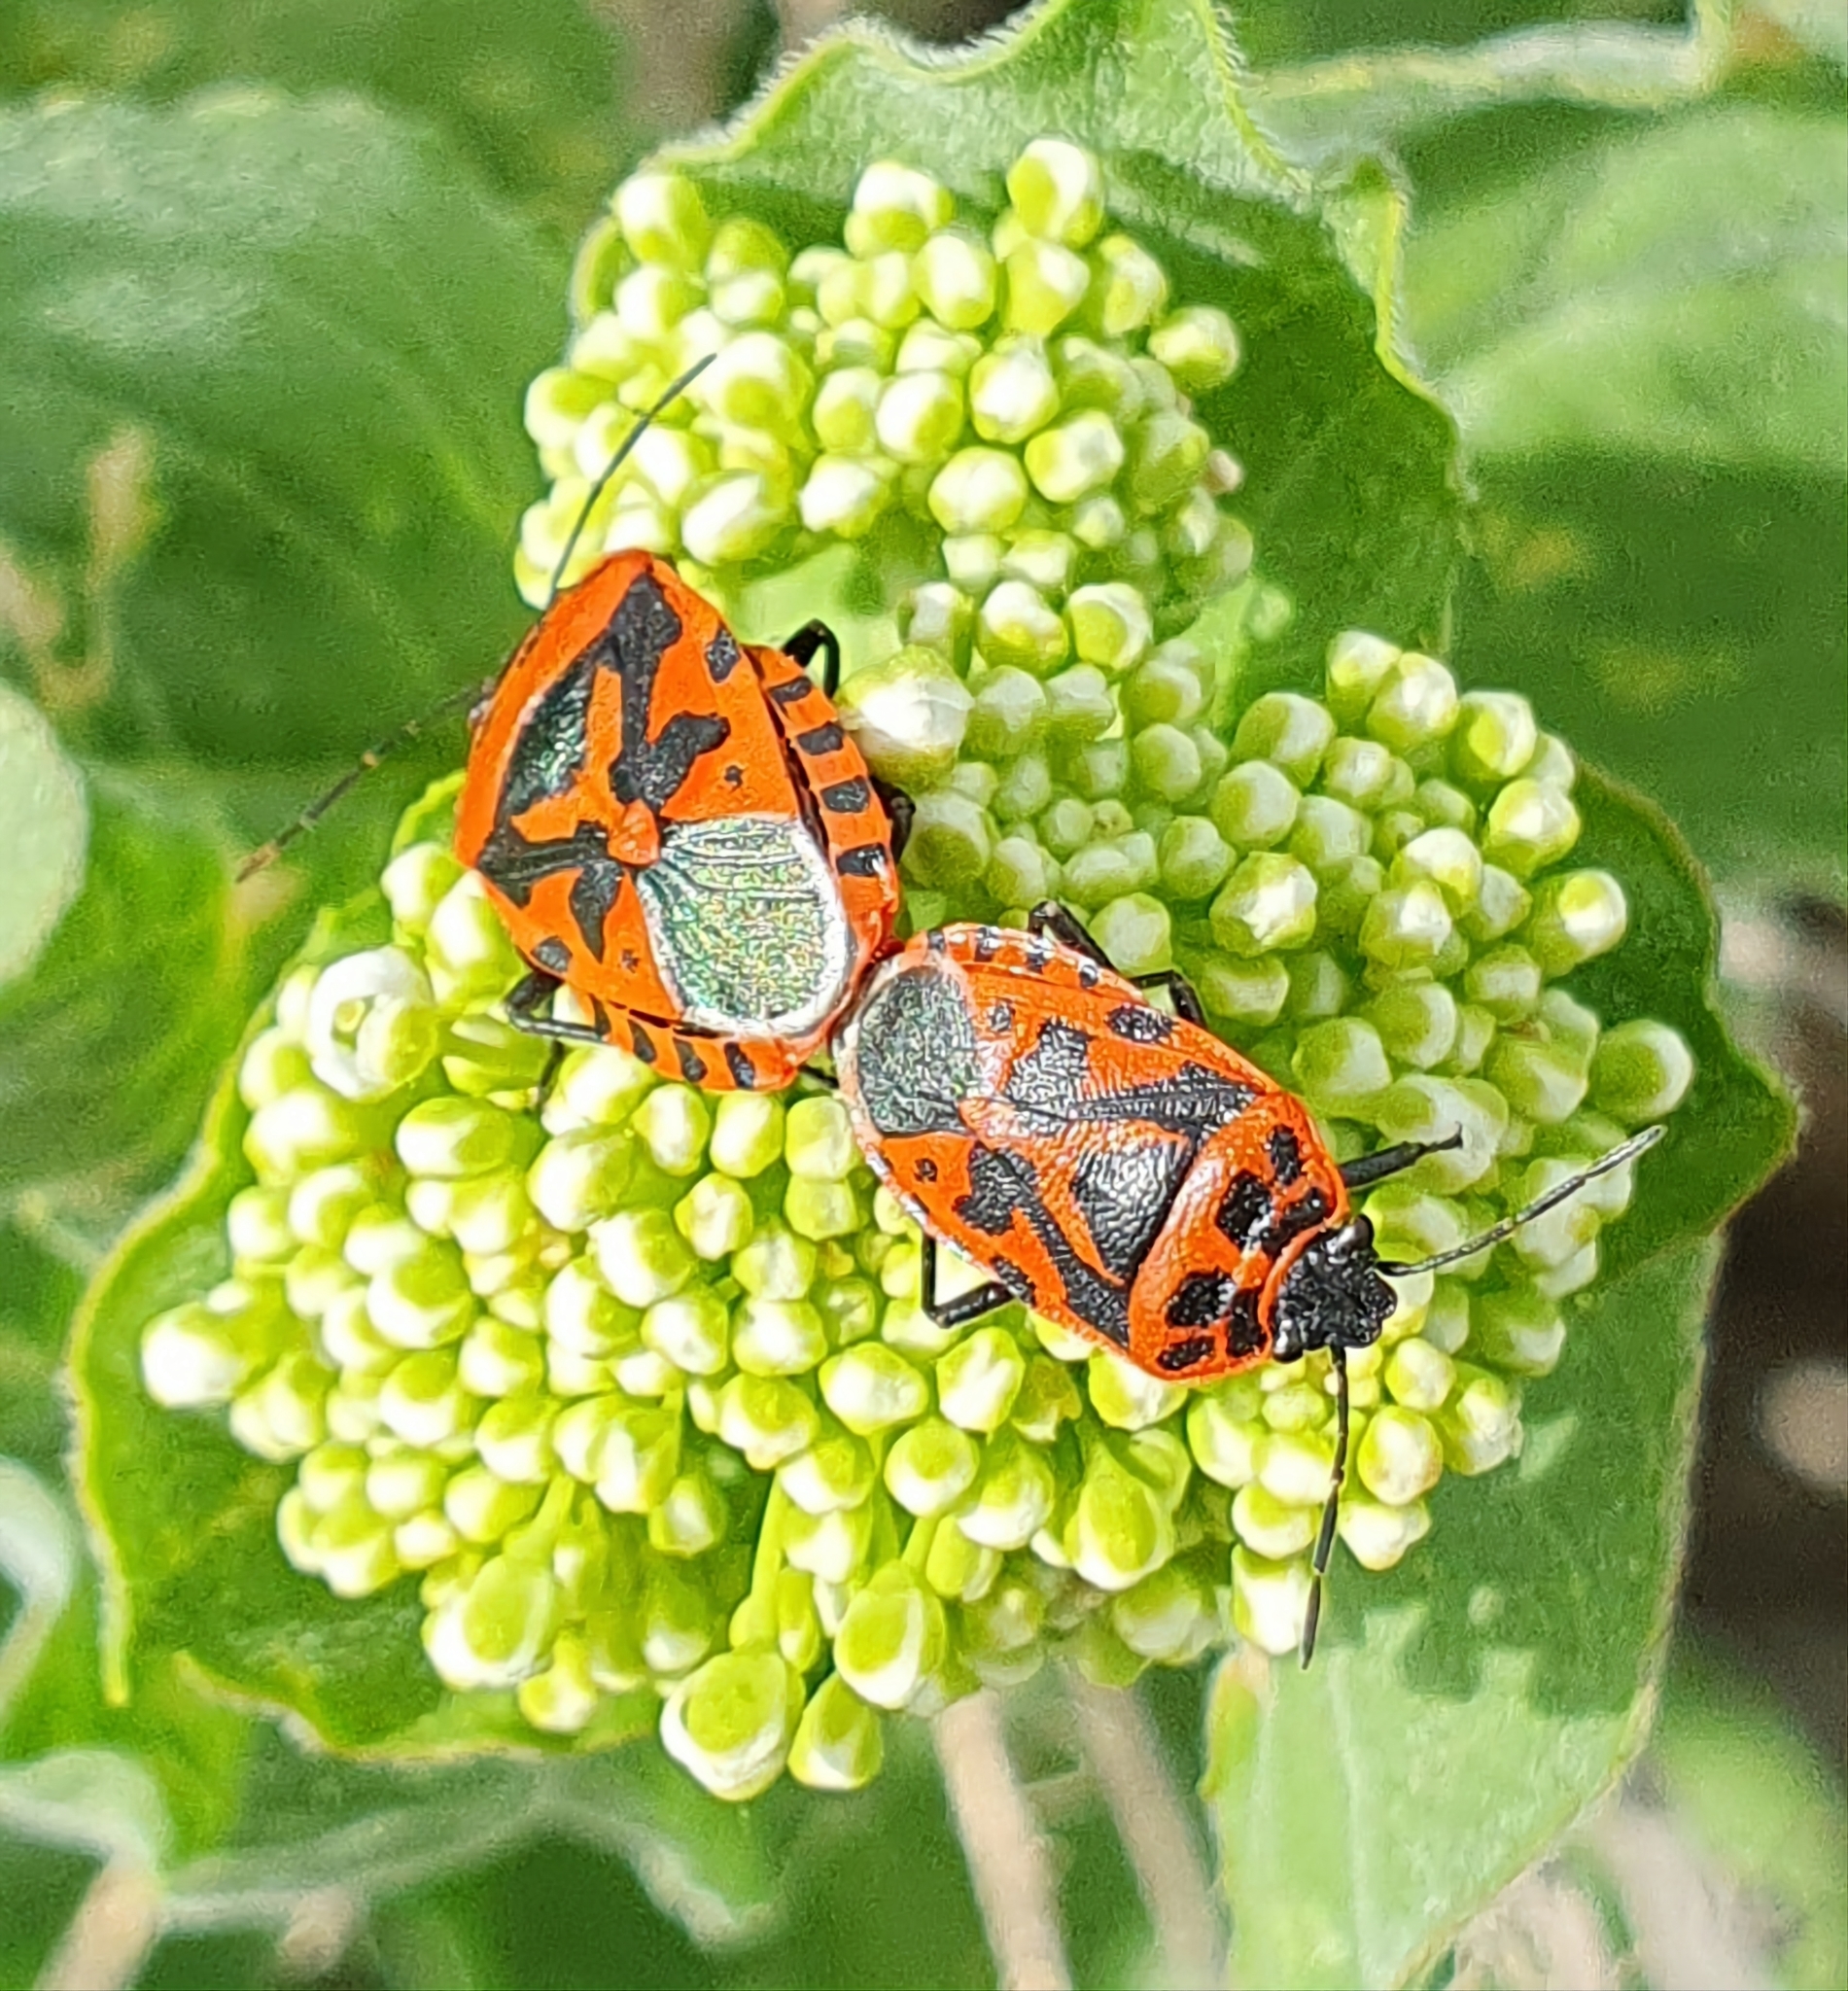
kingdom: Animalia
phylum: Arthropoda
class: Insecta
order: Hemiptera
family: Pentatomidae
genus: Eurydema
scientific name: Eurydema ventralis
